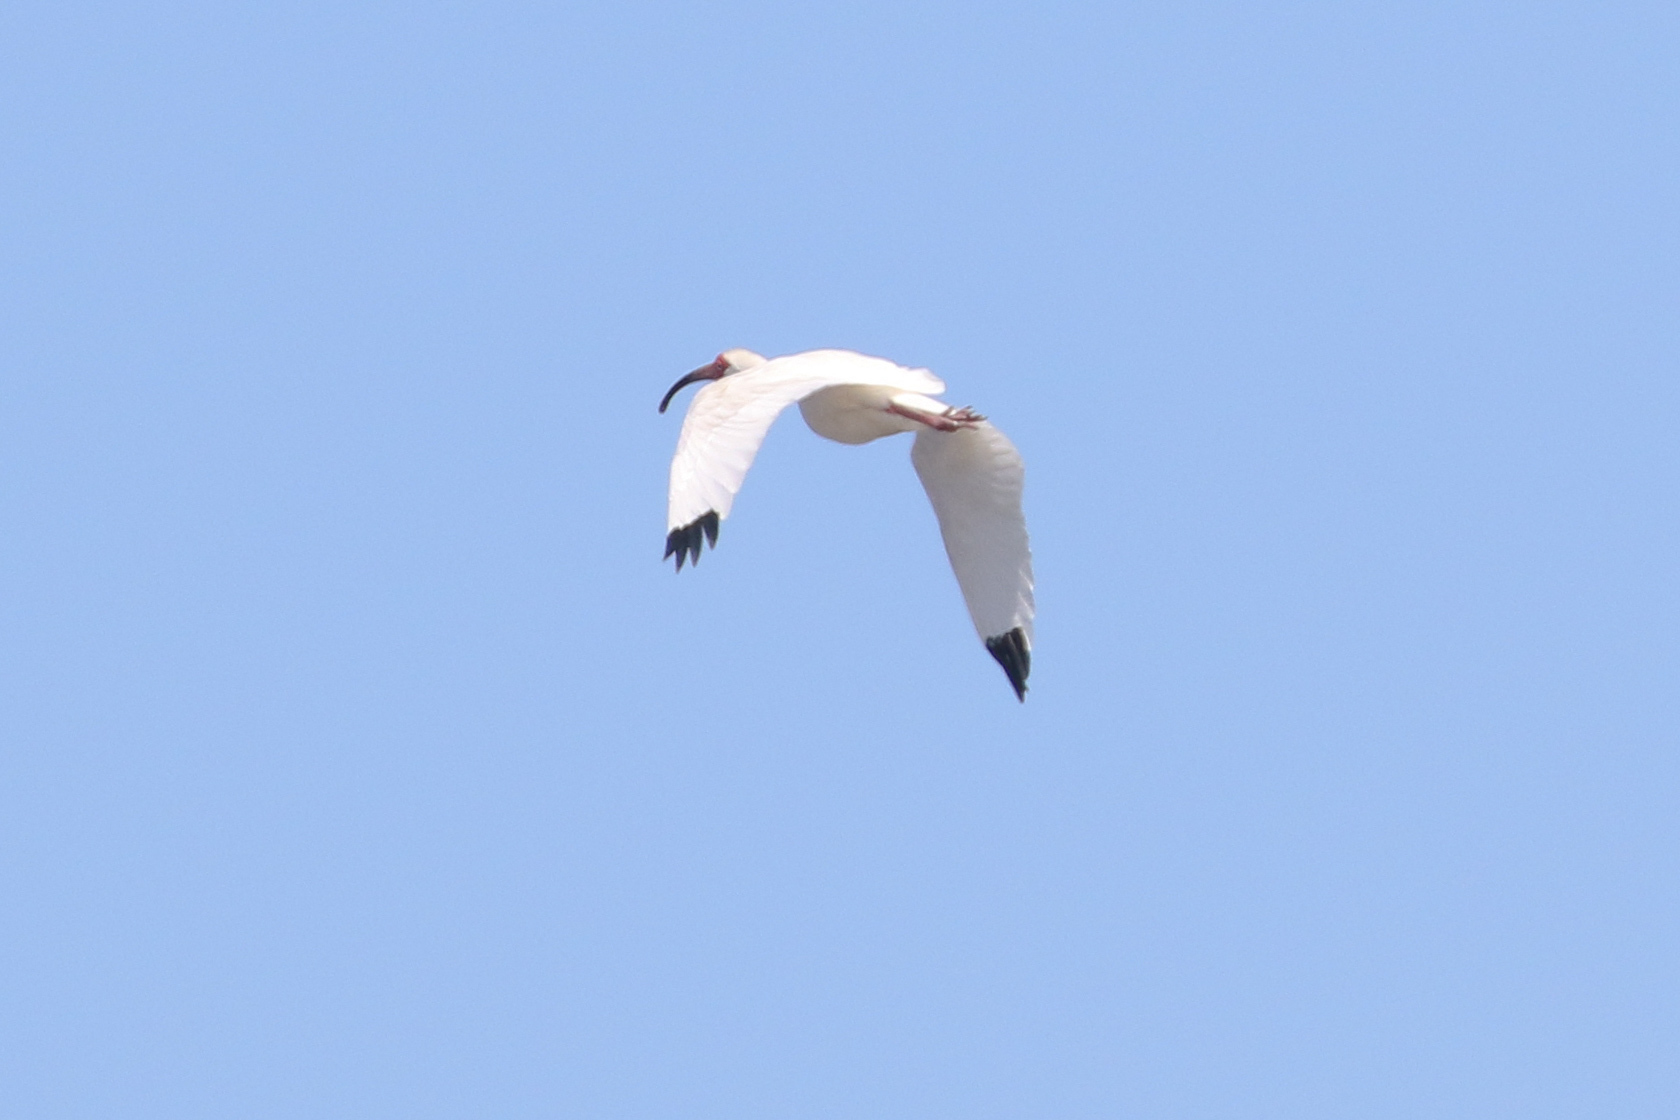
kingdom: Animalia
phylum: Chordata
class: Aves
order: Pelecaniformes
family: Threskiornithidae
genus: Eudocimus
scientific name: Eudocimus albus
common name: White ibis
